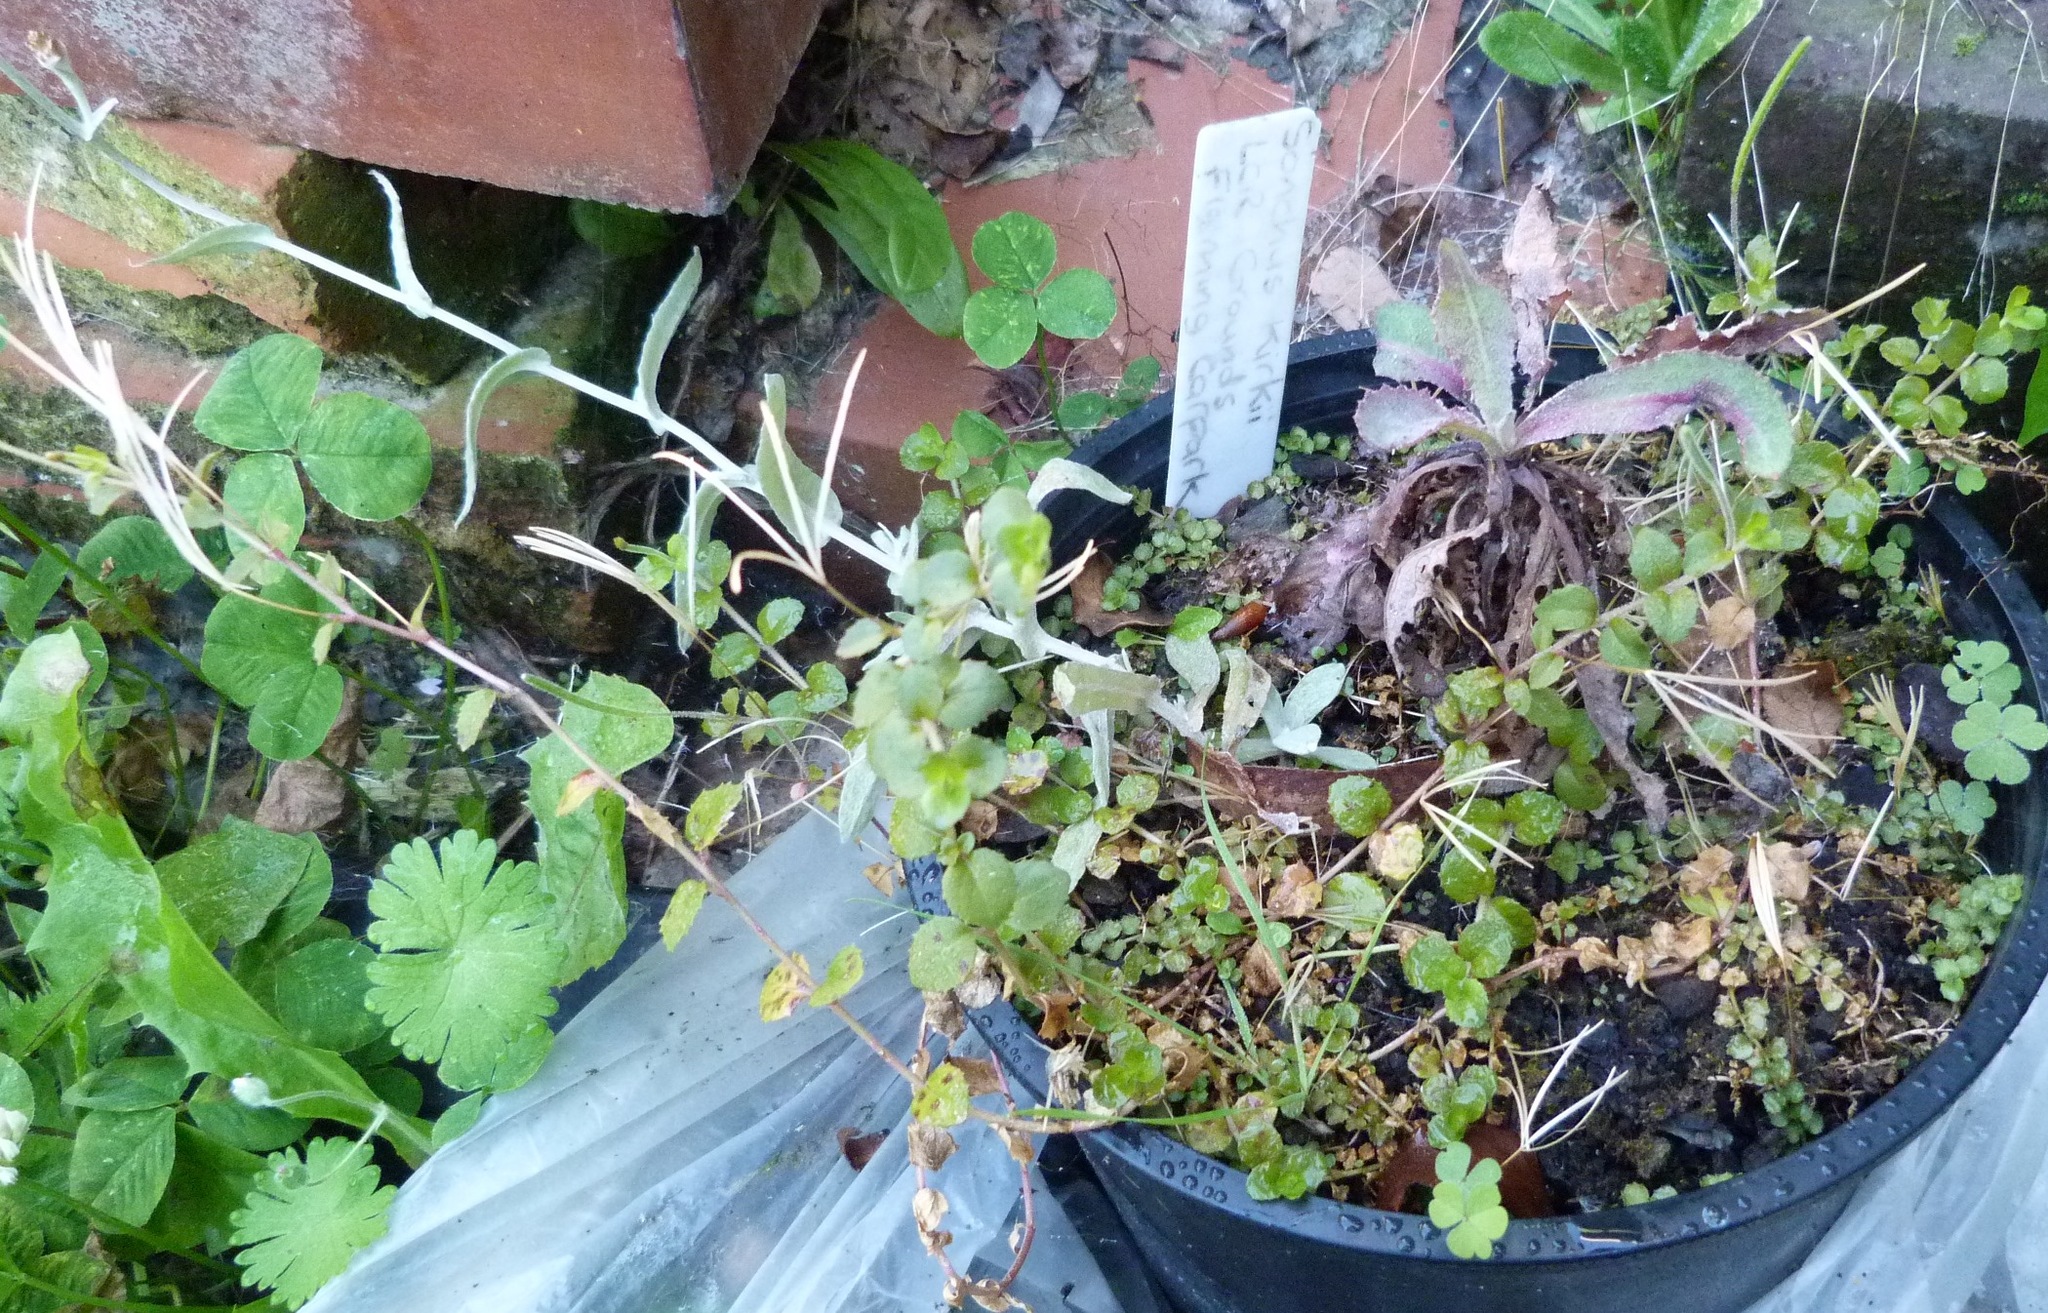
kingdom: Plantae
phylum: Tracheophyta
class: Magnoliopsida
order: Myrtales
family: Onagraceae
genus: Epilobium
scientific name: Epilobium rotundifolium
